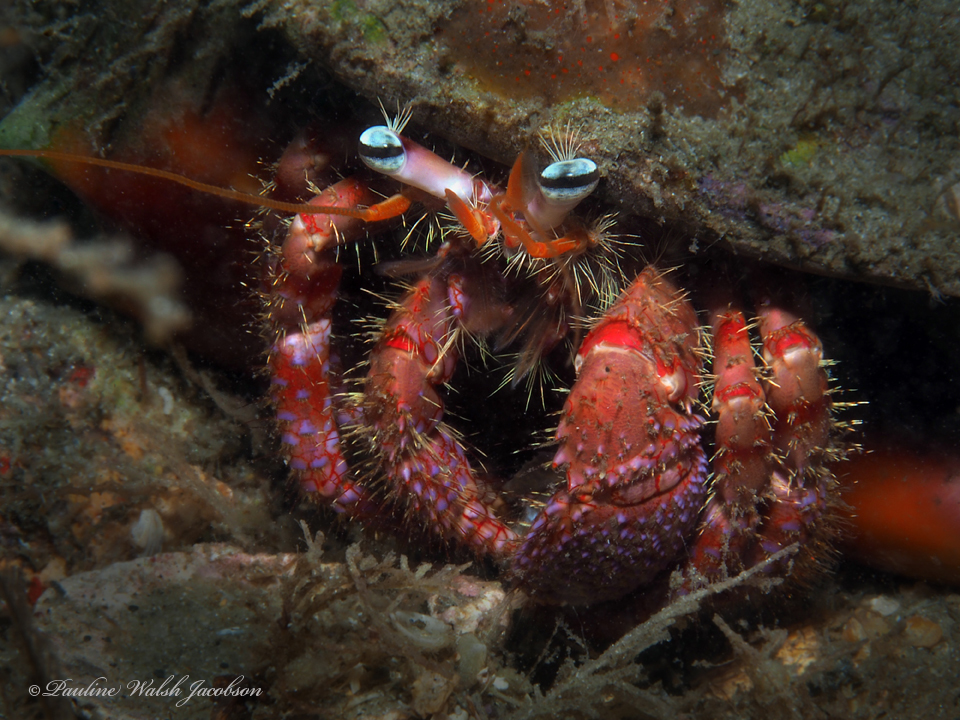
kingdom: Animalia
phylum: Arthropoda
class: Malacostraca
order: Decapoda
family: Diogenidae
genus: Dardanus
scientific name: Dardanus fucosus
